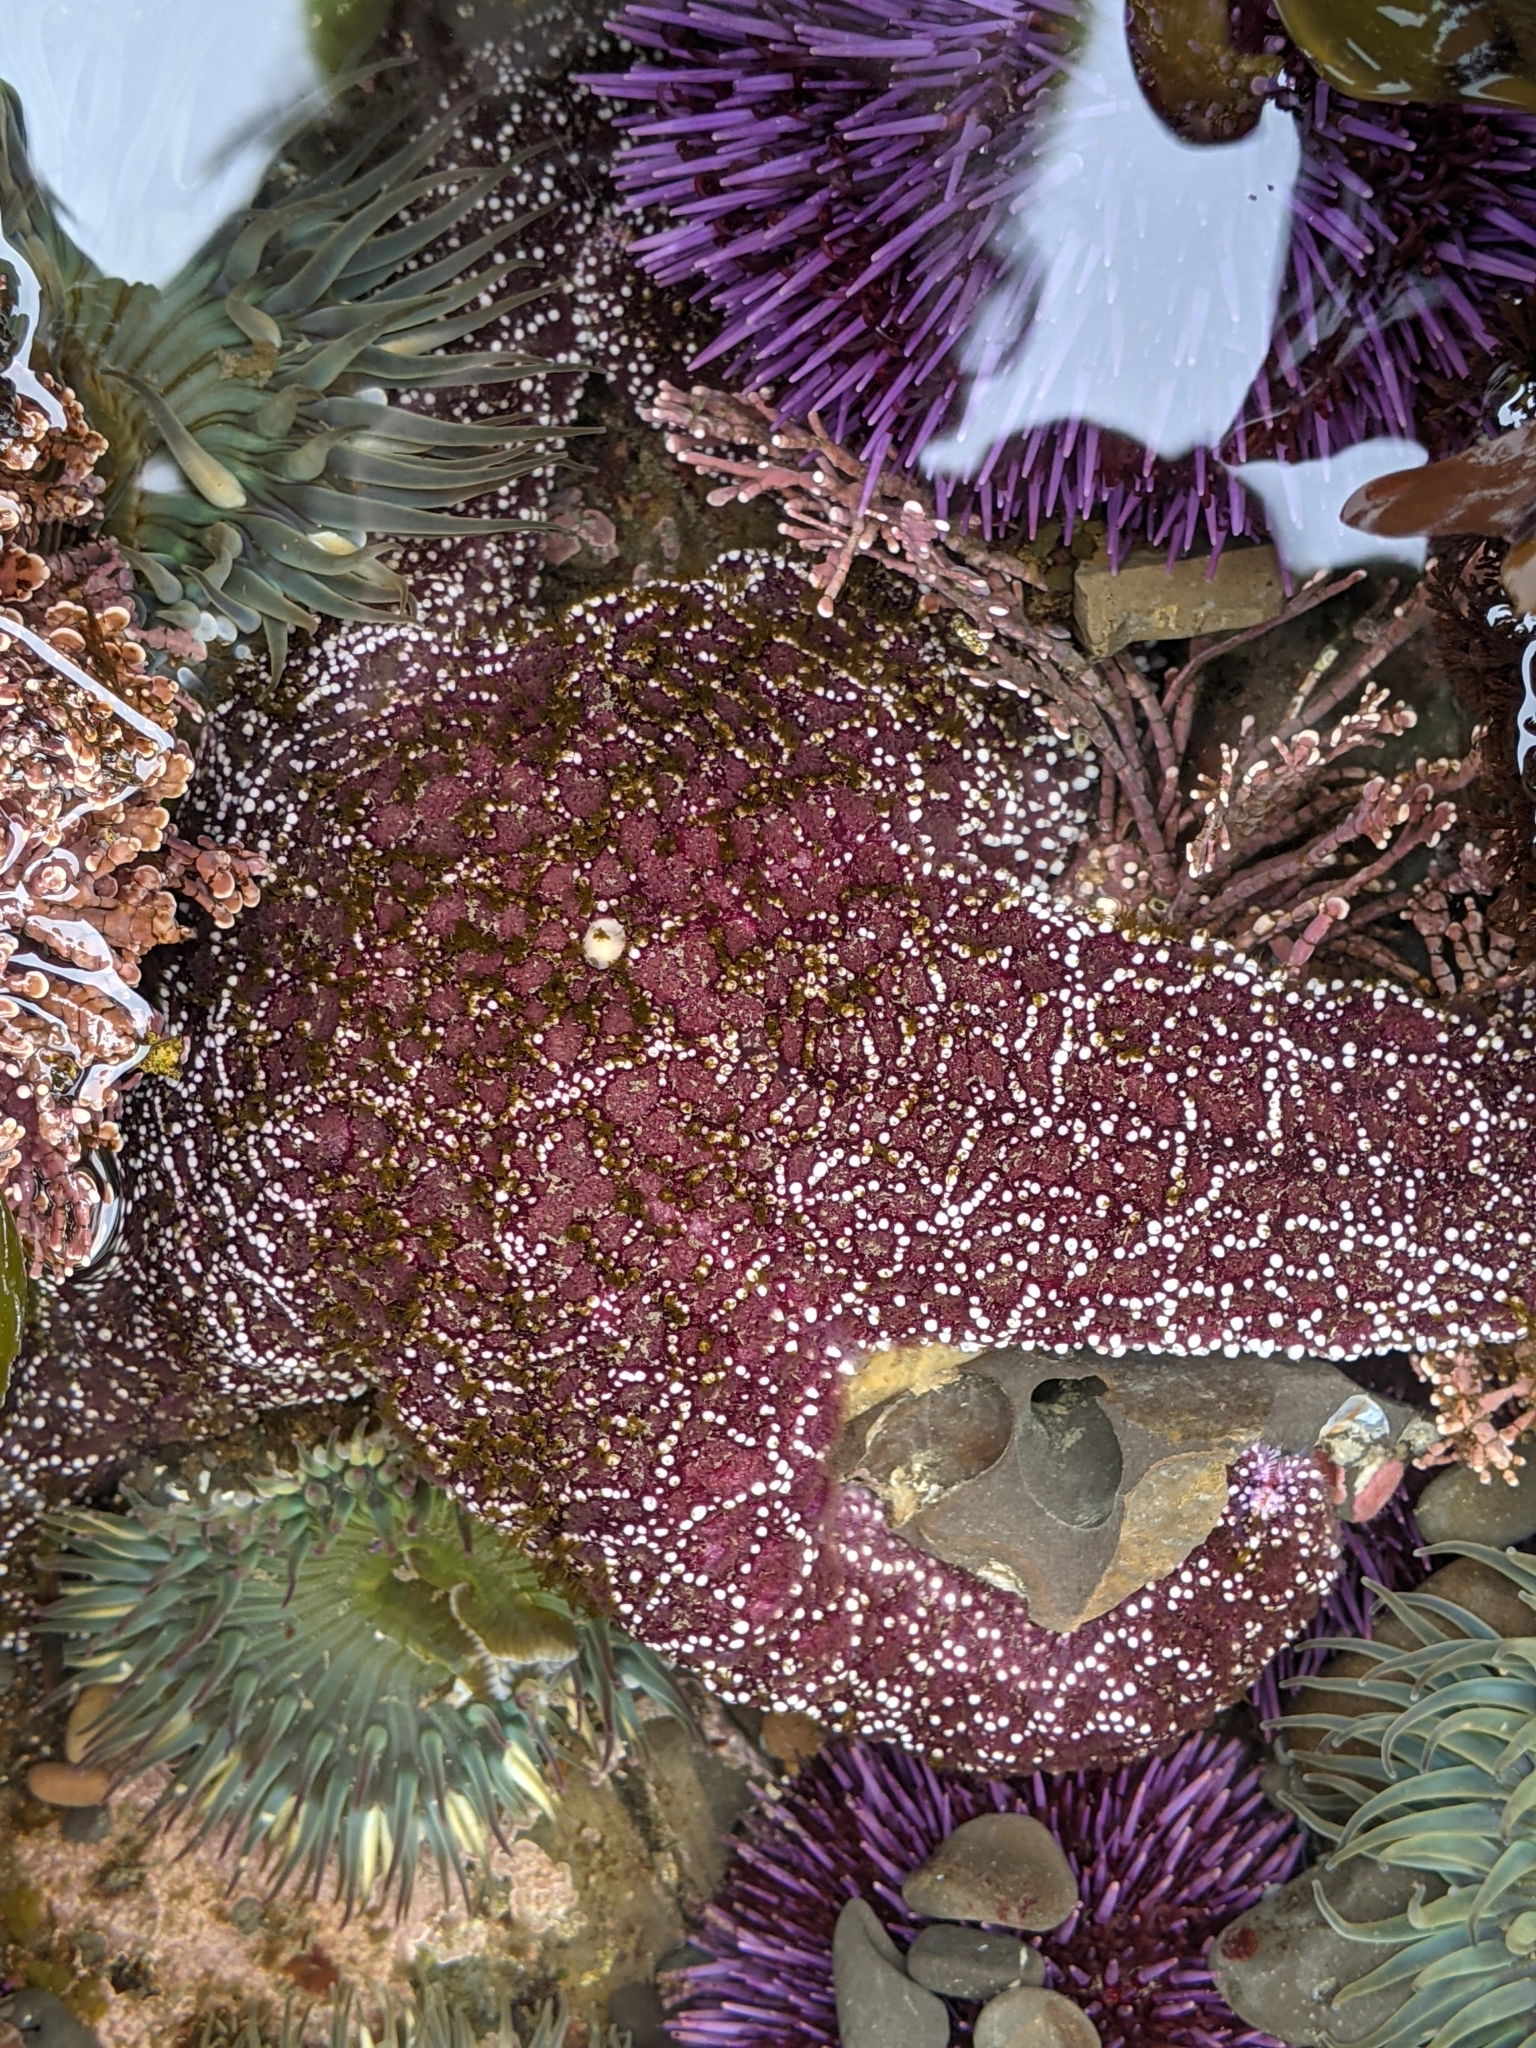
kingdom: Animalia
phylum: Echinodermata
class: Asteroidea
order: Forcipulatida
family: Asteriidae
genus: Pisaster
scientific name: Pisaster ochraceus
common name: Ochre stars
